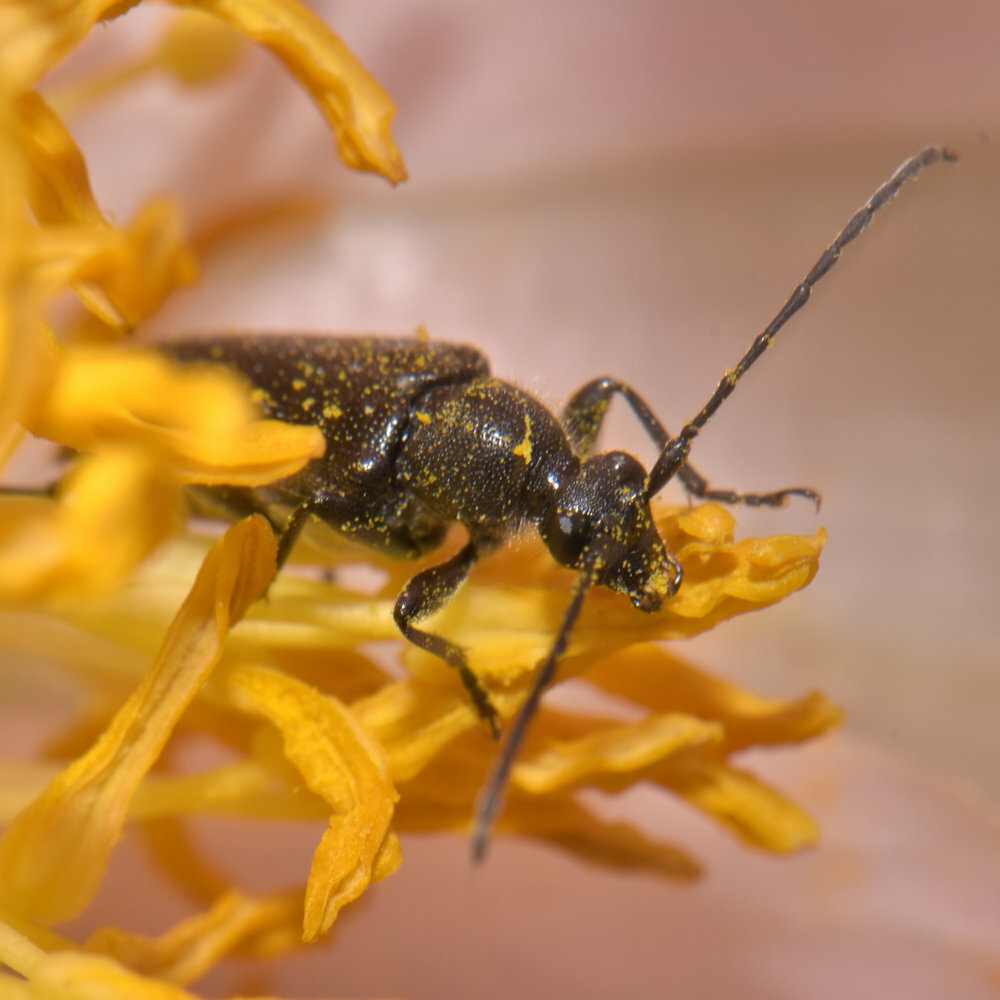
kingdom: Animalia
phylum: Arthropoda
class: Insecta
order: Coleoptera
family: Cerambycidae
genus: Anoplodera
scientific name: Anoplodera pubera
